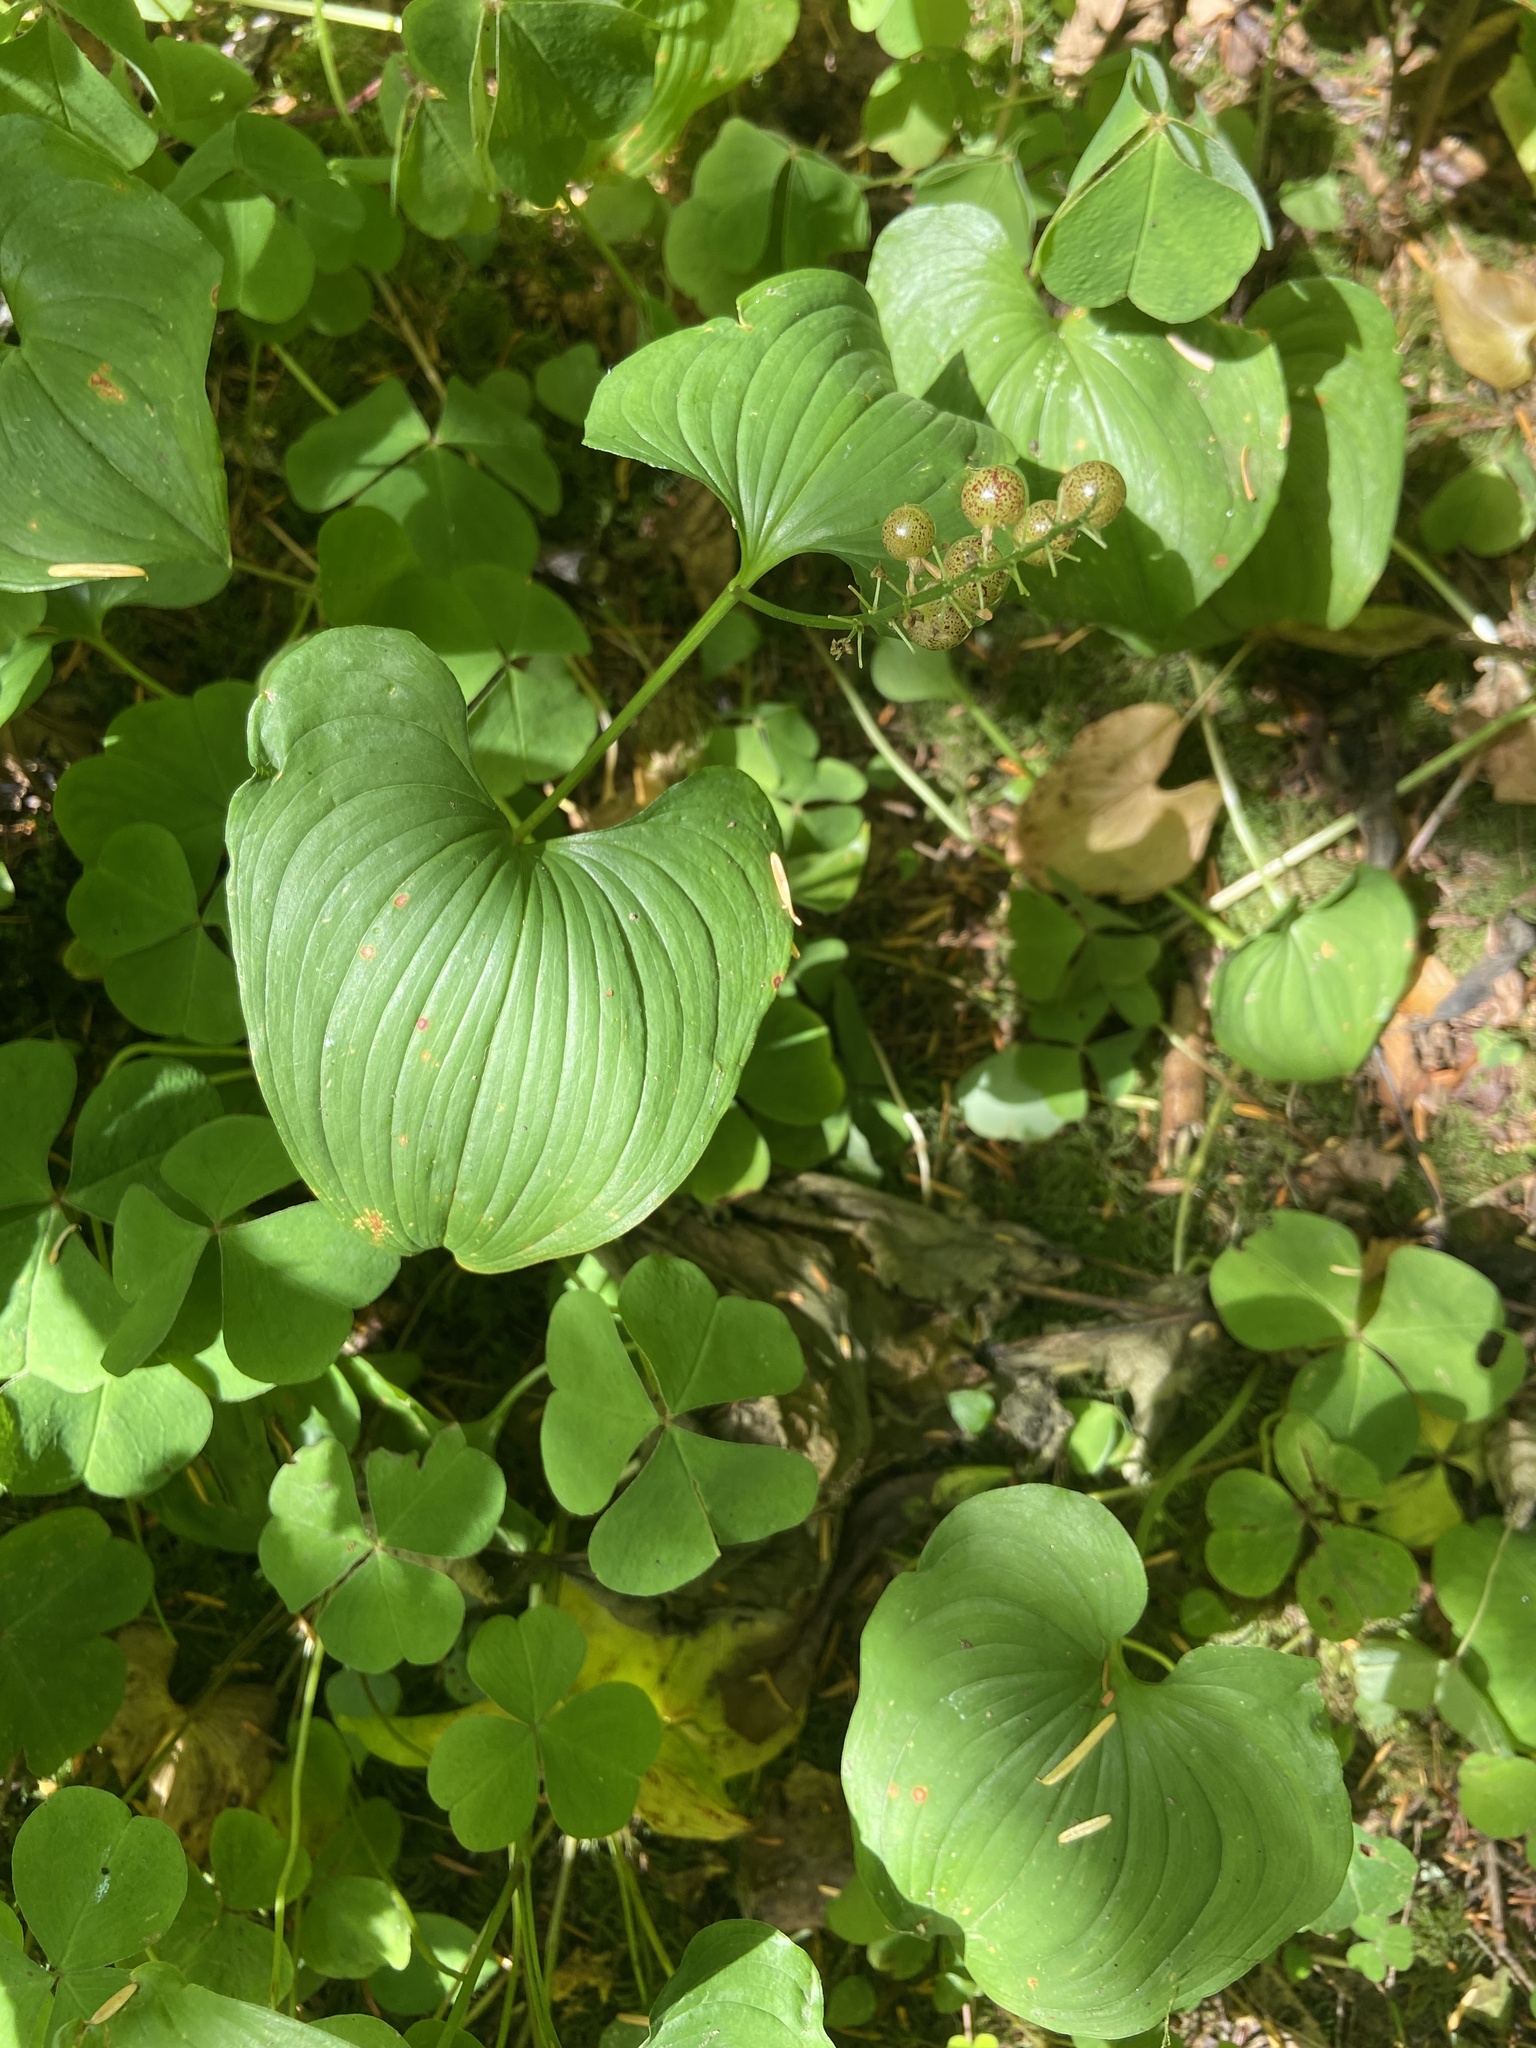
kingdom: Plantae
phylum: Tracheophyta
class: Liliopsida
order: Asparagales
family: Asparagaceae
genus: Maianthemum
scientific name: Maianthemum dilatatum
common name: False lily-of-the-valley
